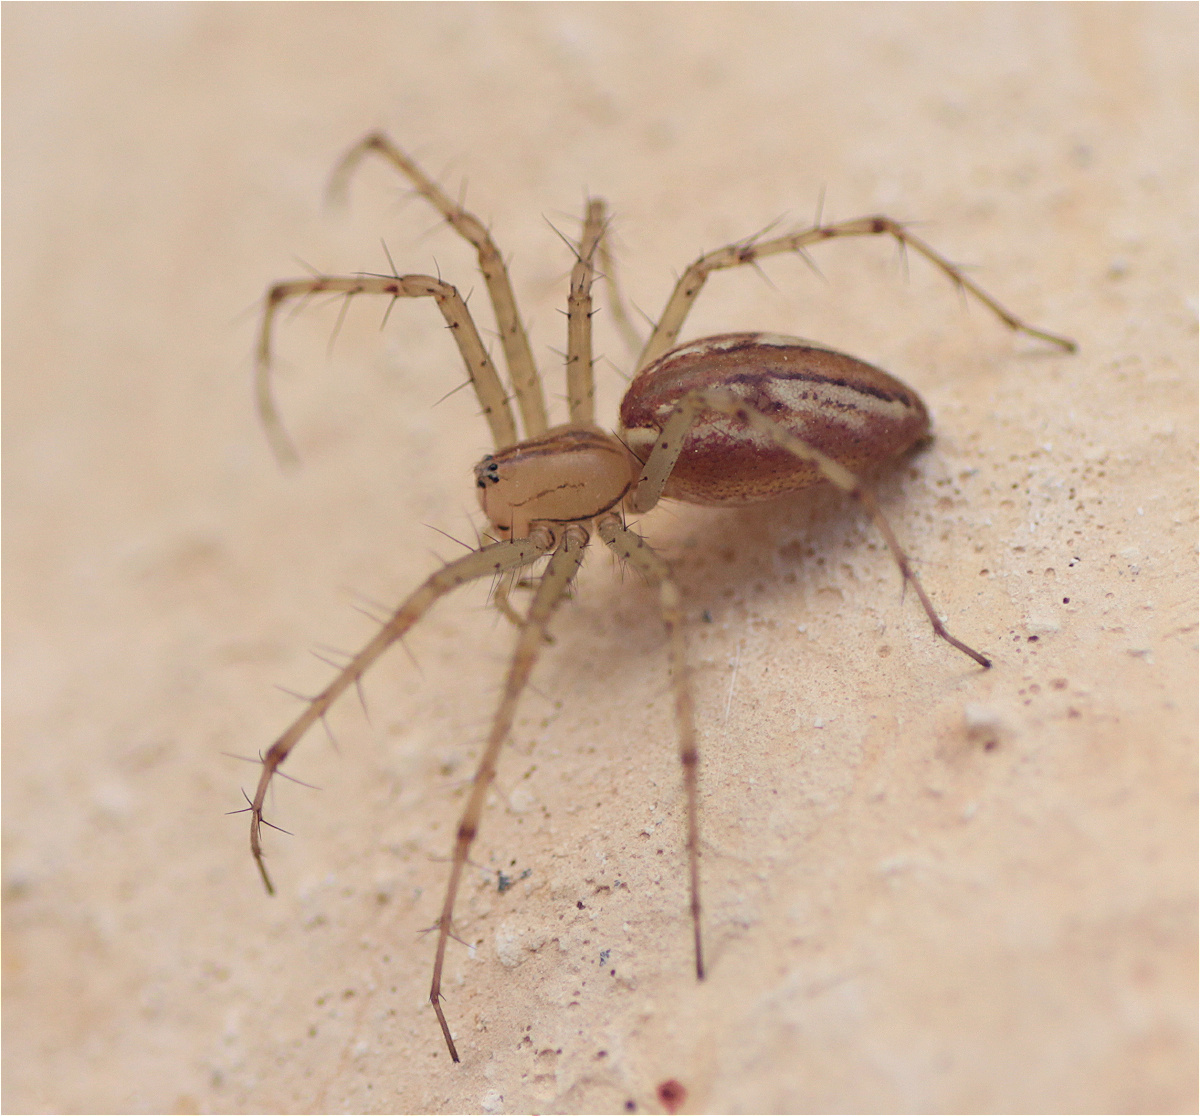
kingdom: Animalia
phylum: Arthropoda
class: Arachnida
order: Araneae
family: Oxyopidae
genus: Peucetia
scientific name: Peucetia rubrolineata
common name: Lynx spiders
